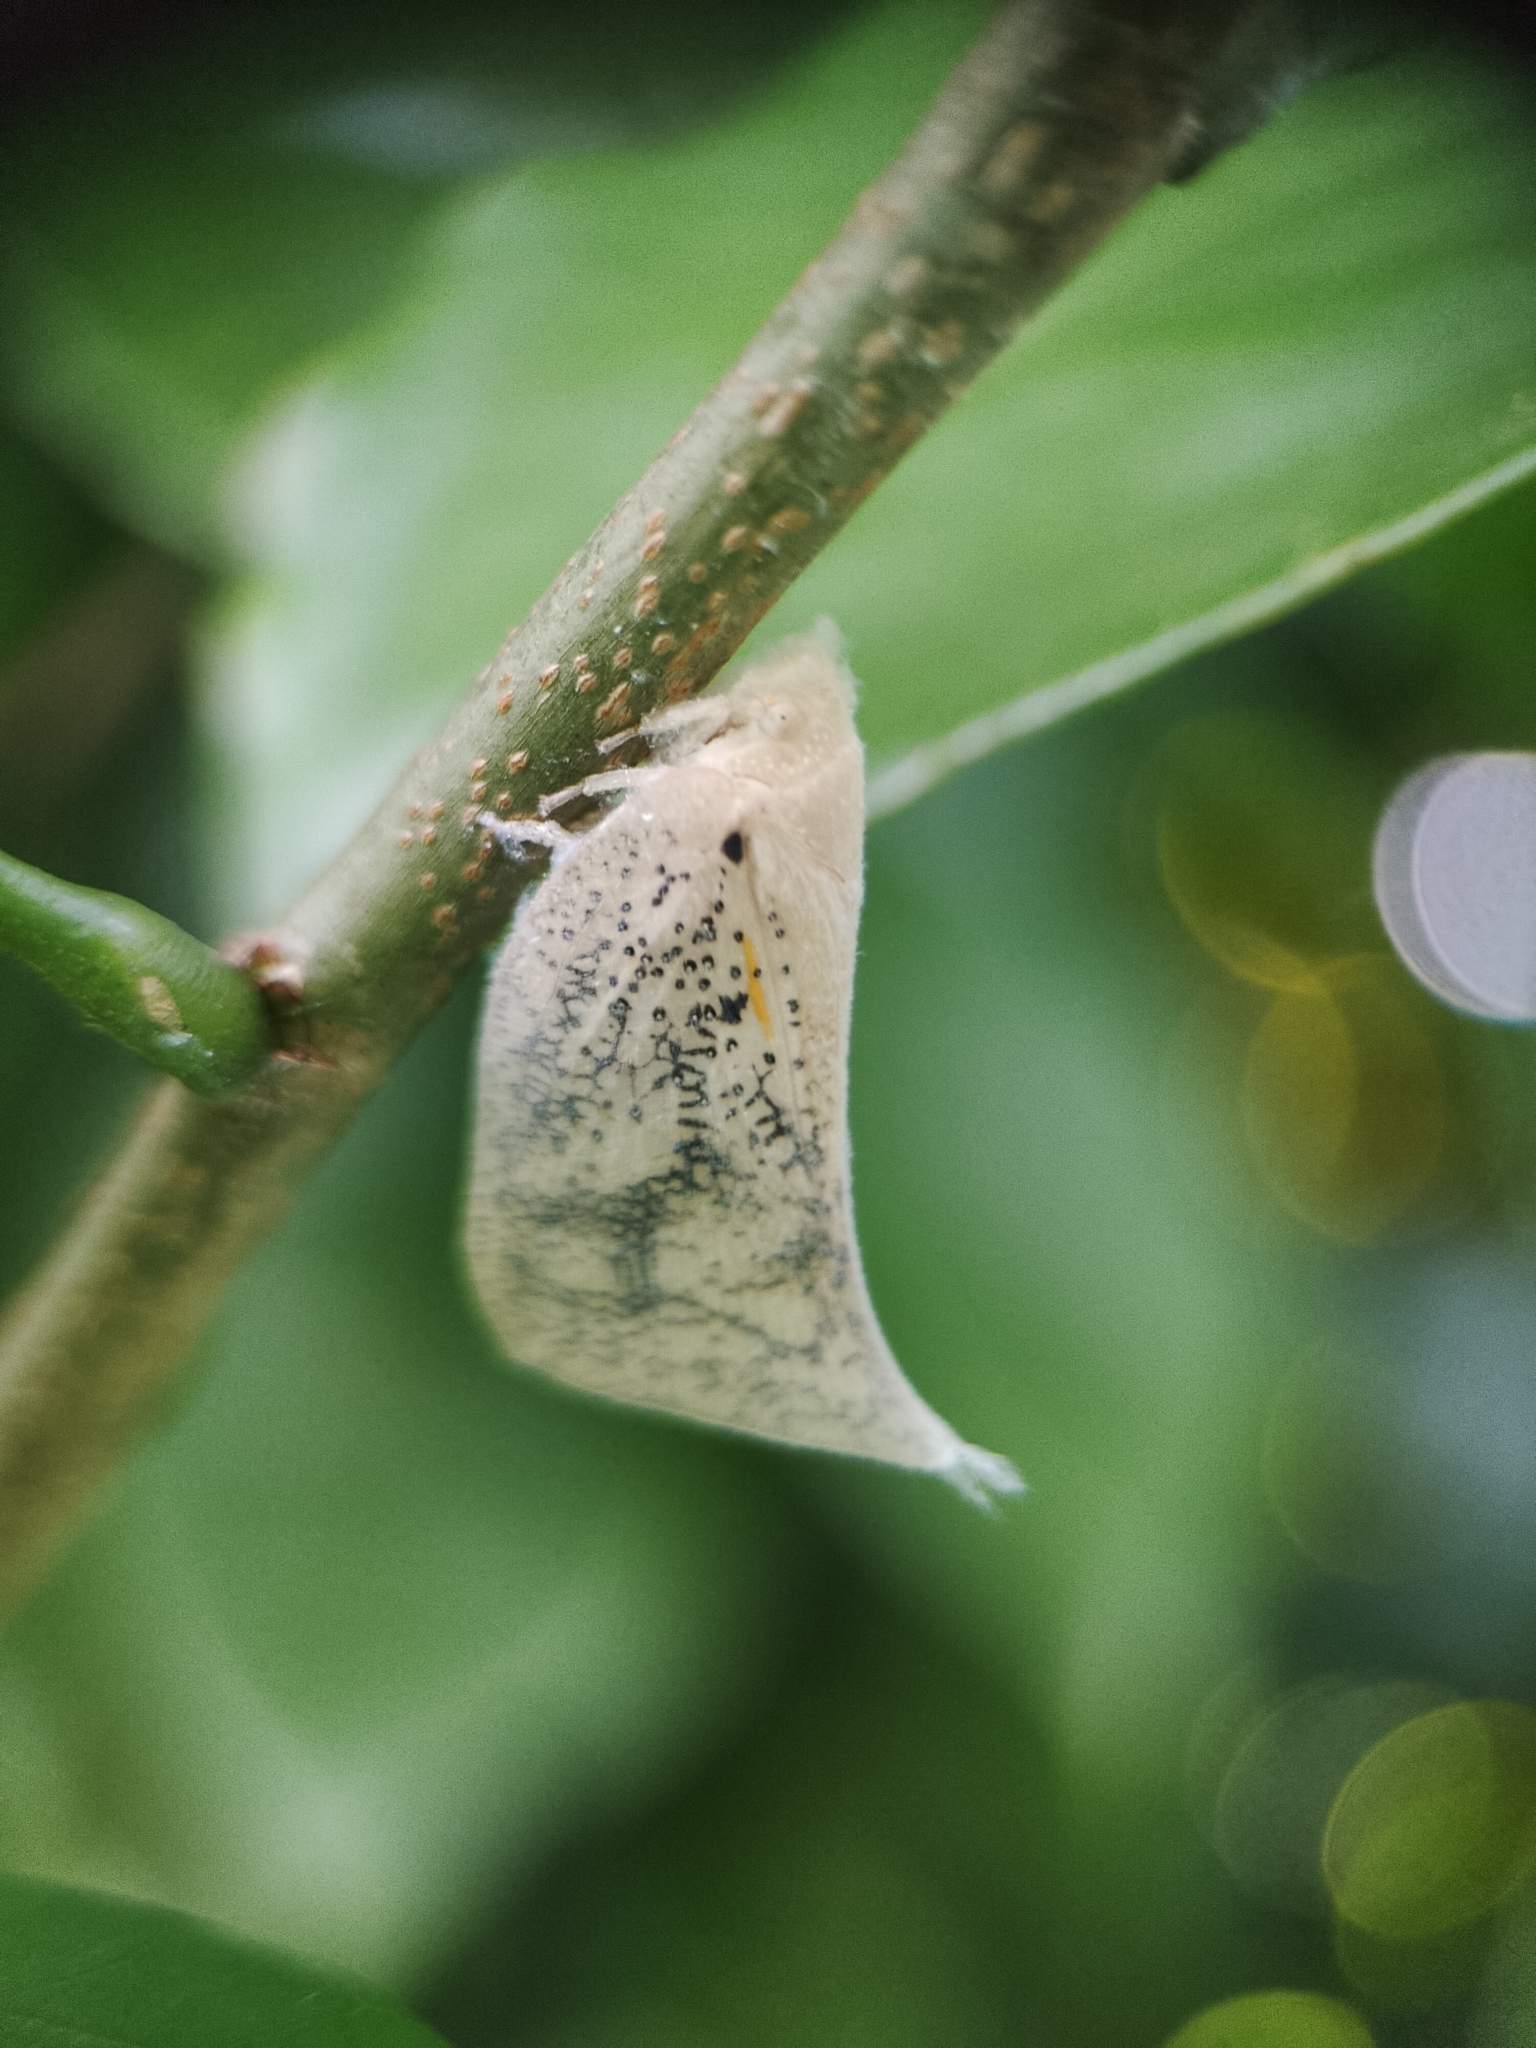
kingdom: Animalia
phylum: Arthropoda
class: Insecta
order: Hemiptera
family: Flatidae
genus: Lawana
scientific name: Lawana conspersa
